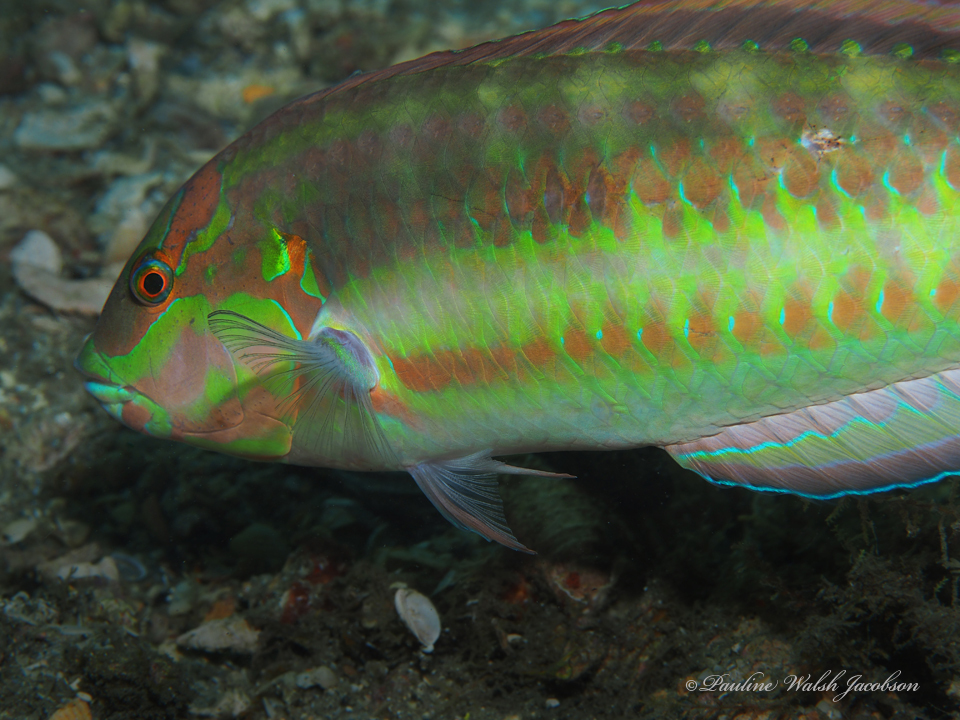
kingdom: Animalia
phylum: Chordata
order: Perciformes
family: Labridae
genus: Halichoeres
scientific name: Halichoeres bivittatus
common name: Slippery dick
